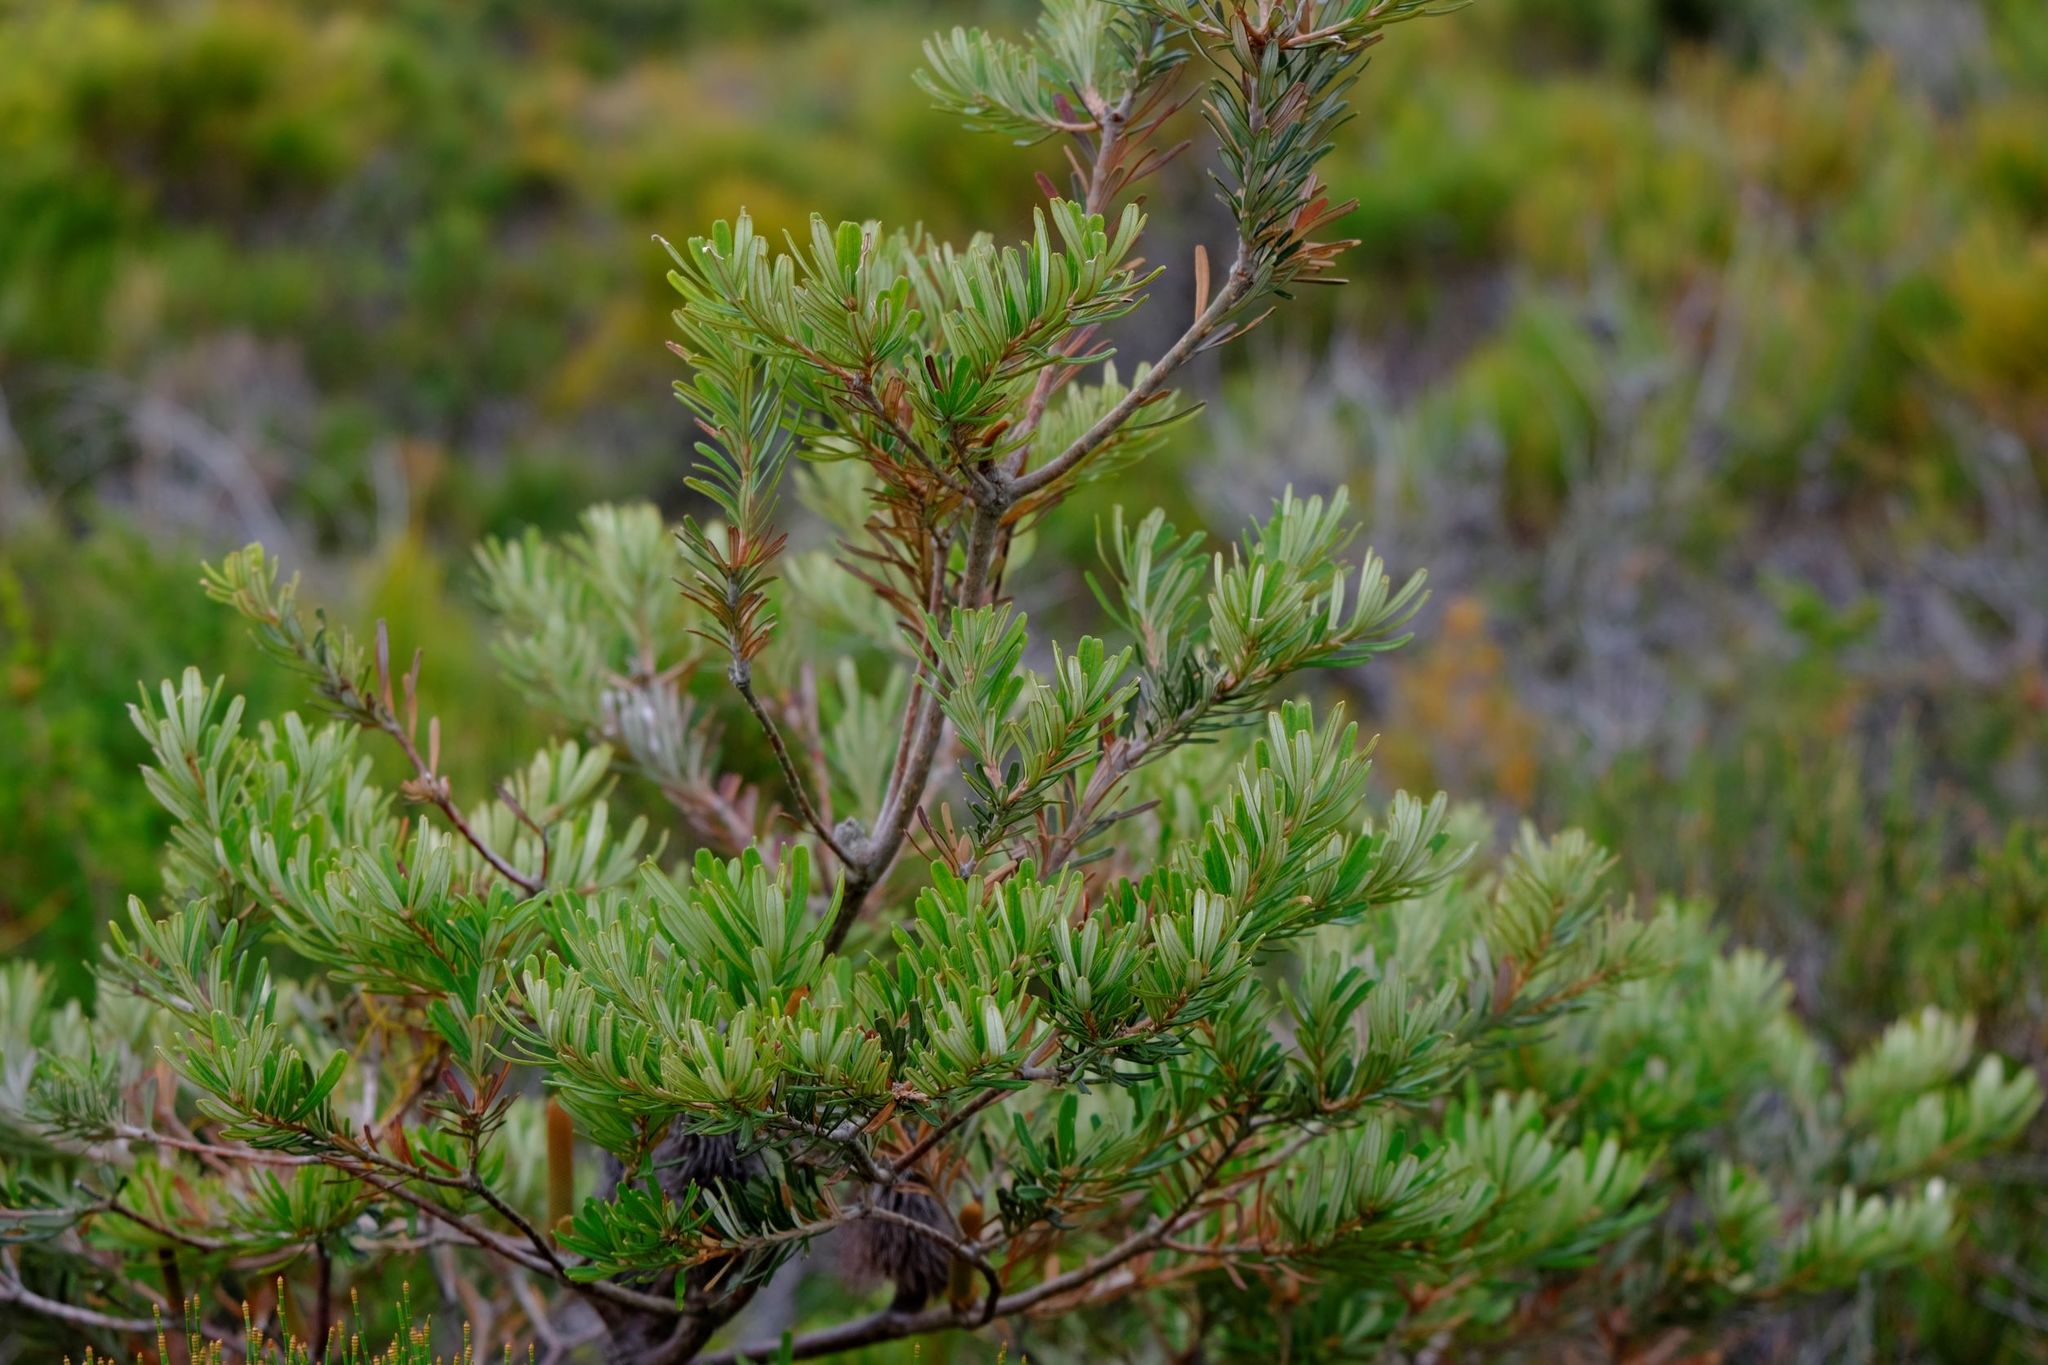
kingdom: Plantae
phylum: Tracheophyta
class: Magnoliopsida
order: Proteales
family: Proteaceae
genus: Banksia
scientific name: Banksia marginata
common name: Silver banksia
